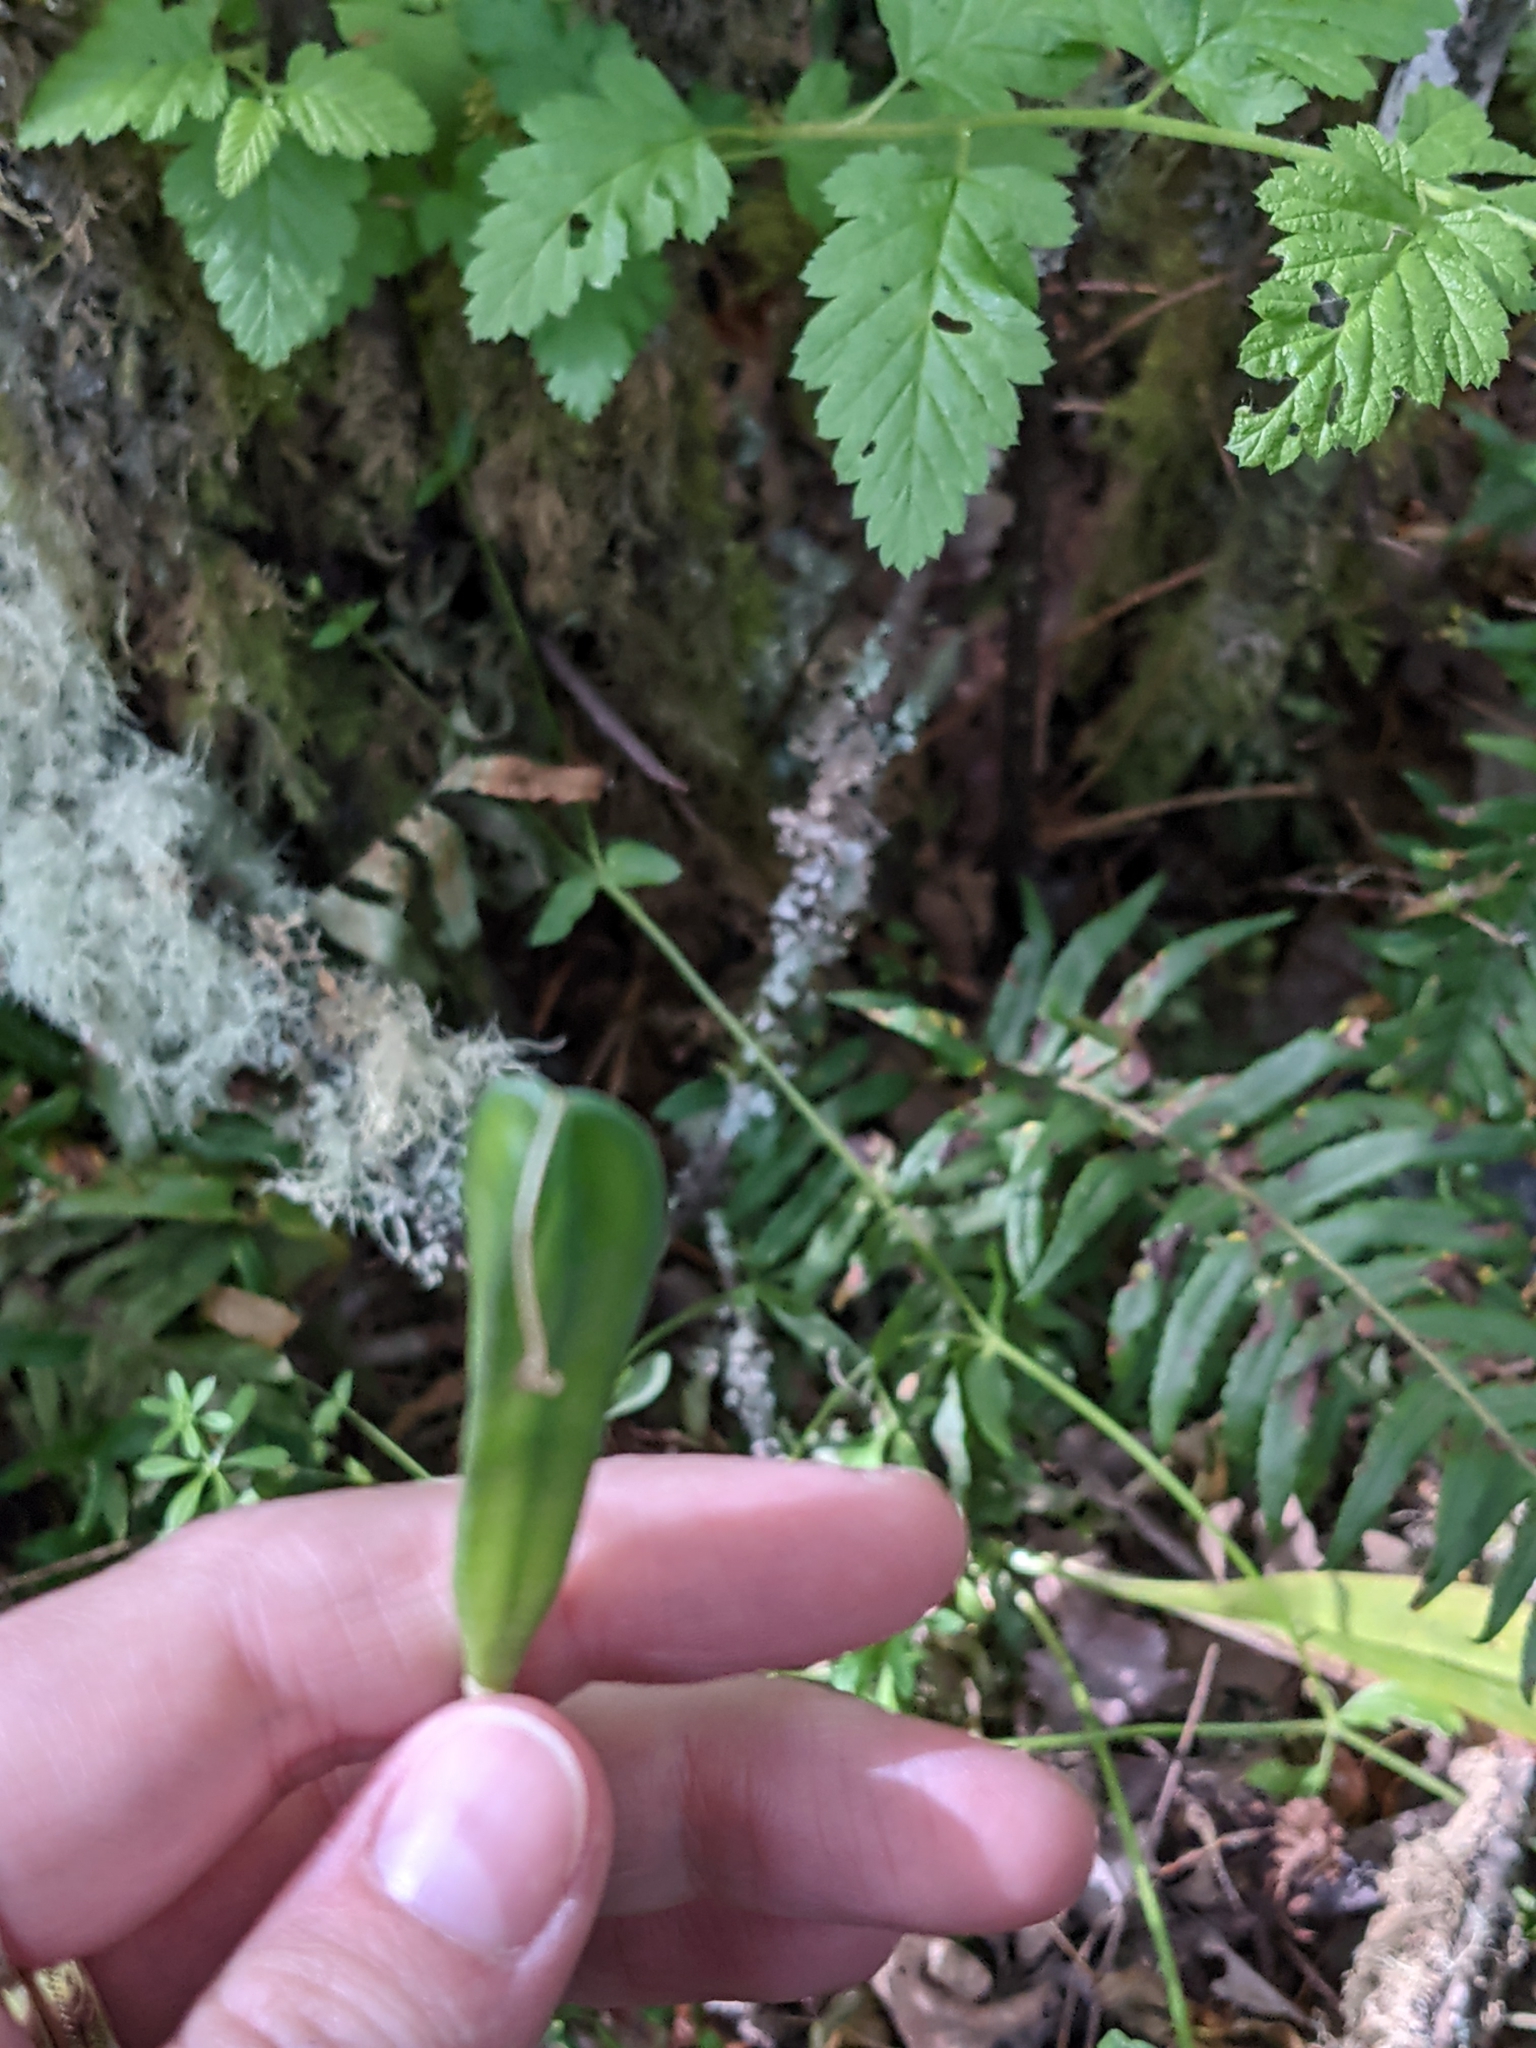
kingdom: Plantae
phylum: Tracheophyta
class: Liliopsida
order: Liliales
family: Liliaceae
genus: Erythronium
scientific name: Erythronium oregonum
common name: Giant adder's-tongue
